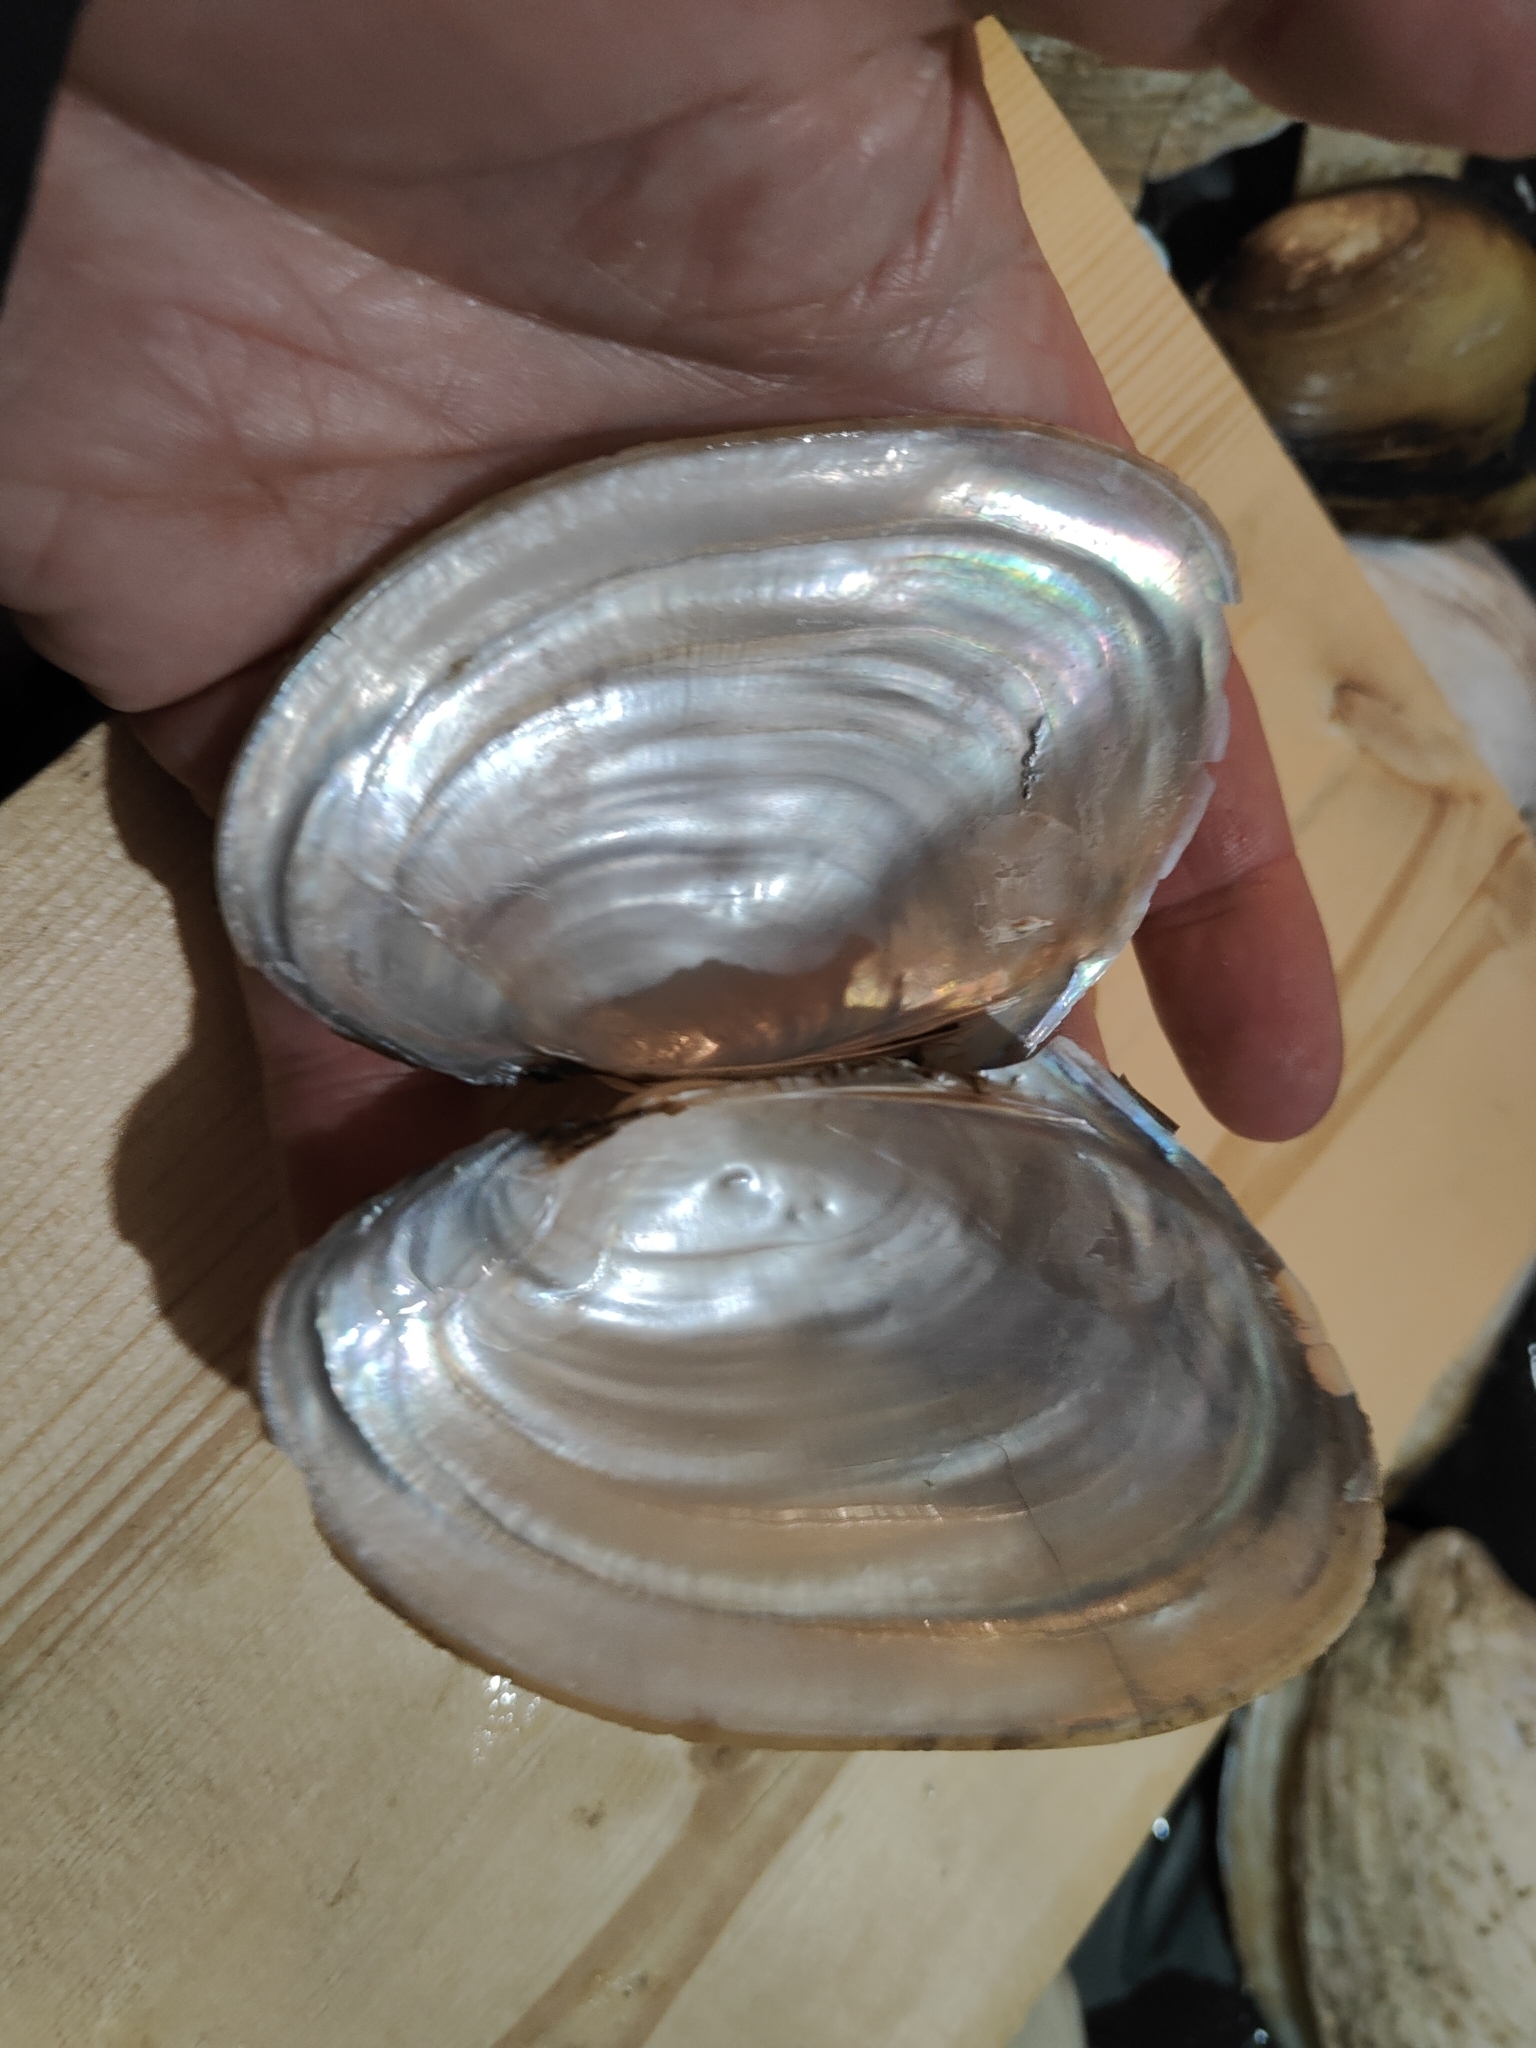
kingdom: Animalia
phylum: Mollusca
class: Bivalvia
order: Unionida
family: Unionidae
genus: Potamilus
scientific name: Potamilus ohiensis
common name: Pink papershell
